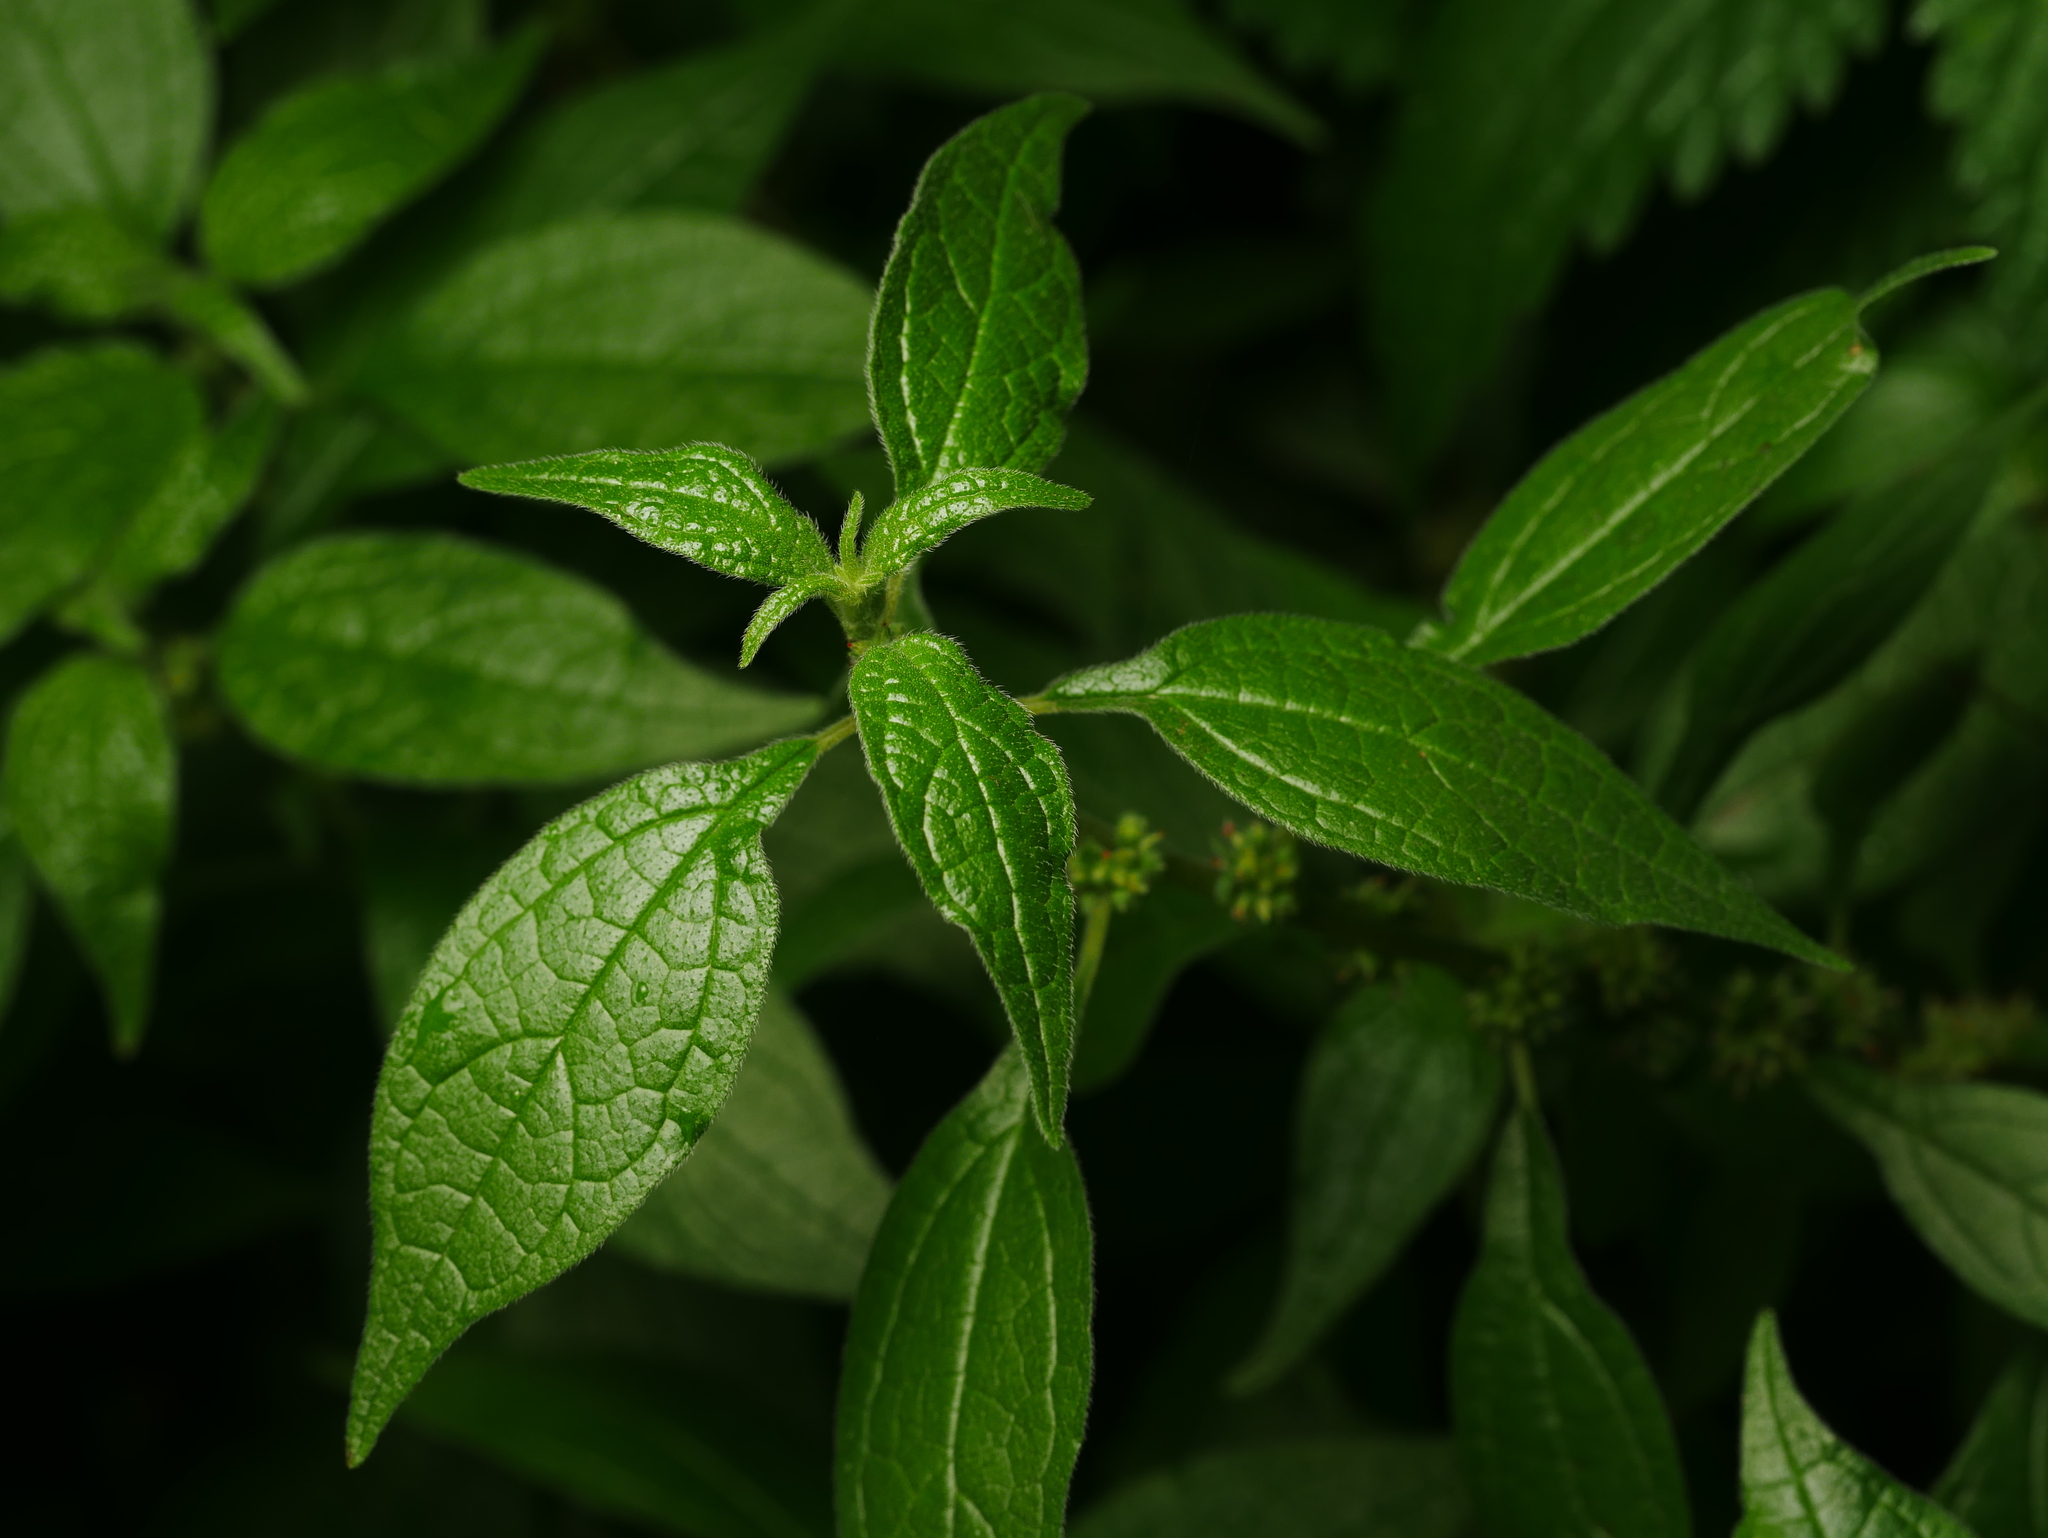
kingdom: Plantae
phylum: Tracheophyta
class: Magnoliopsida
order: Rosales
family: Urticaceae
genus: Parietaria
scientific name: Parietaria officinalis
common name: Eastern pellitory-of-the-wall
